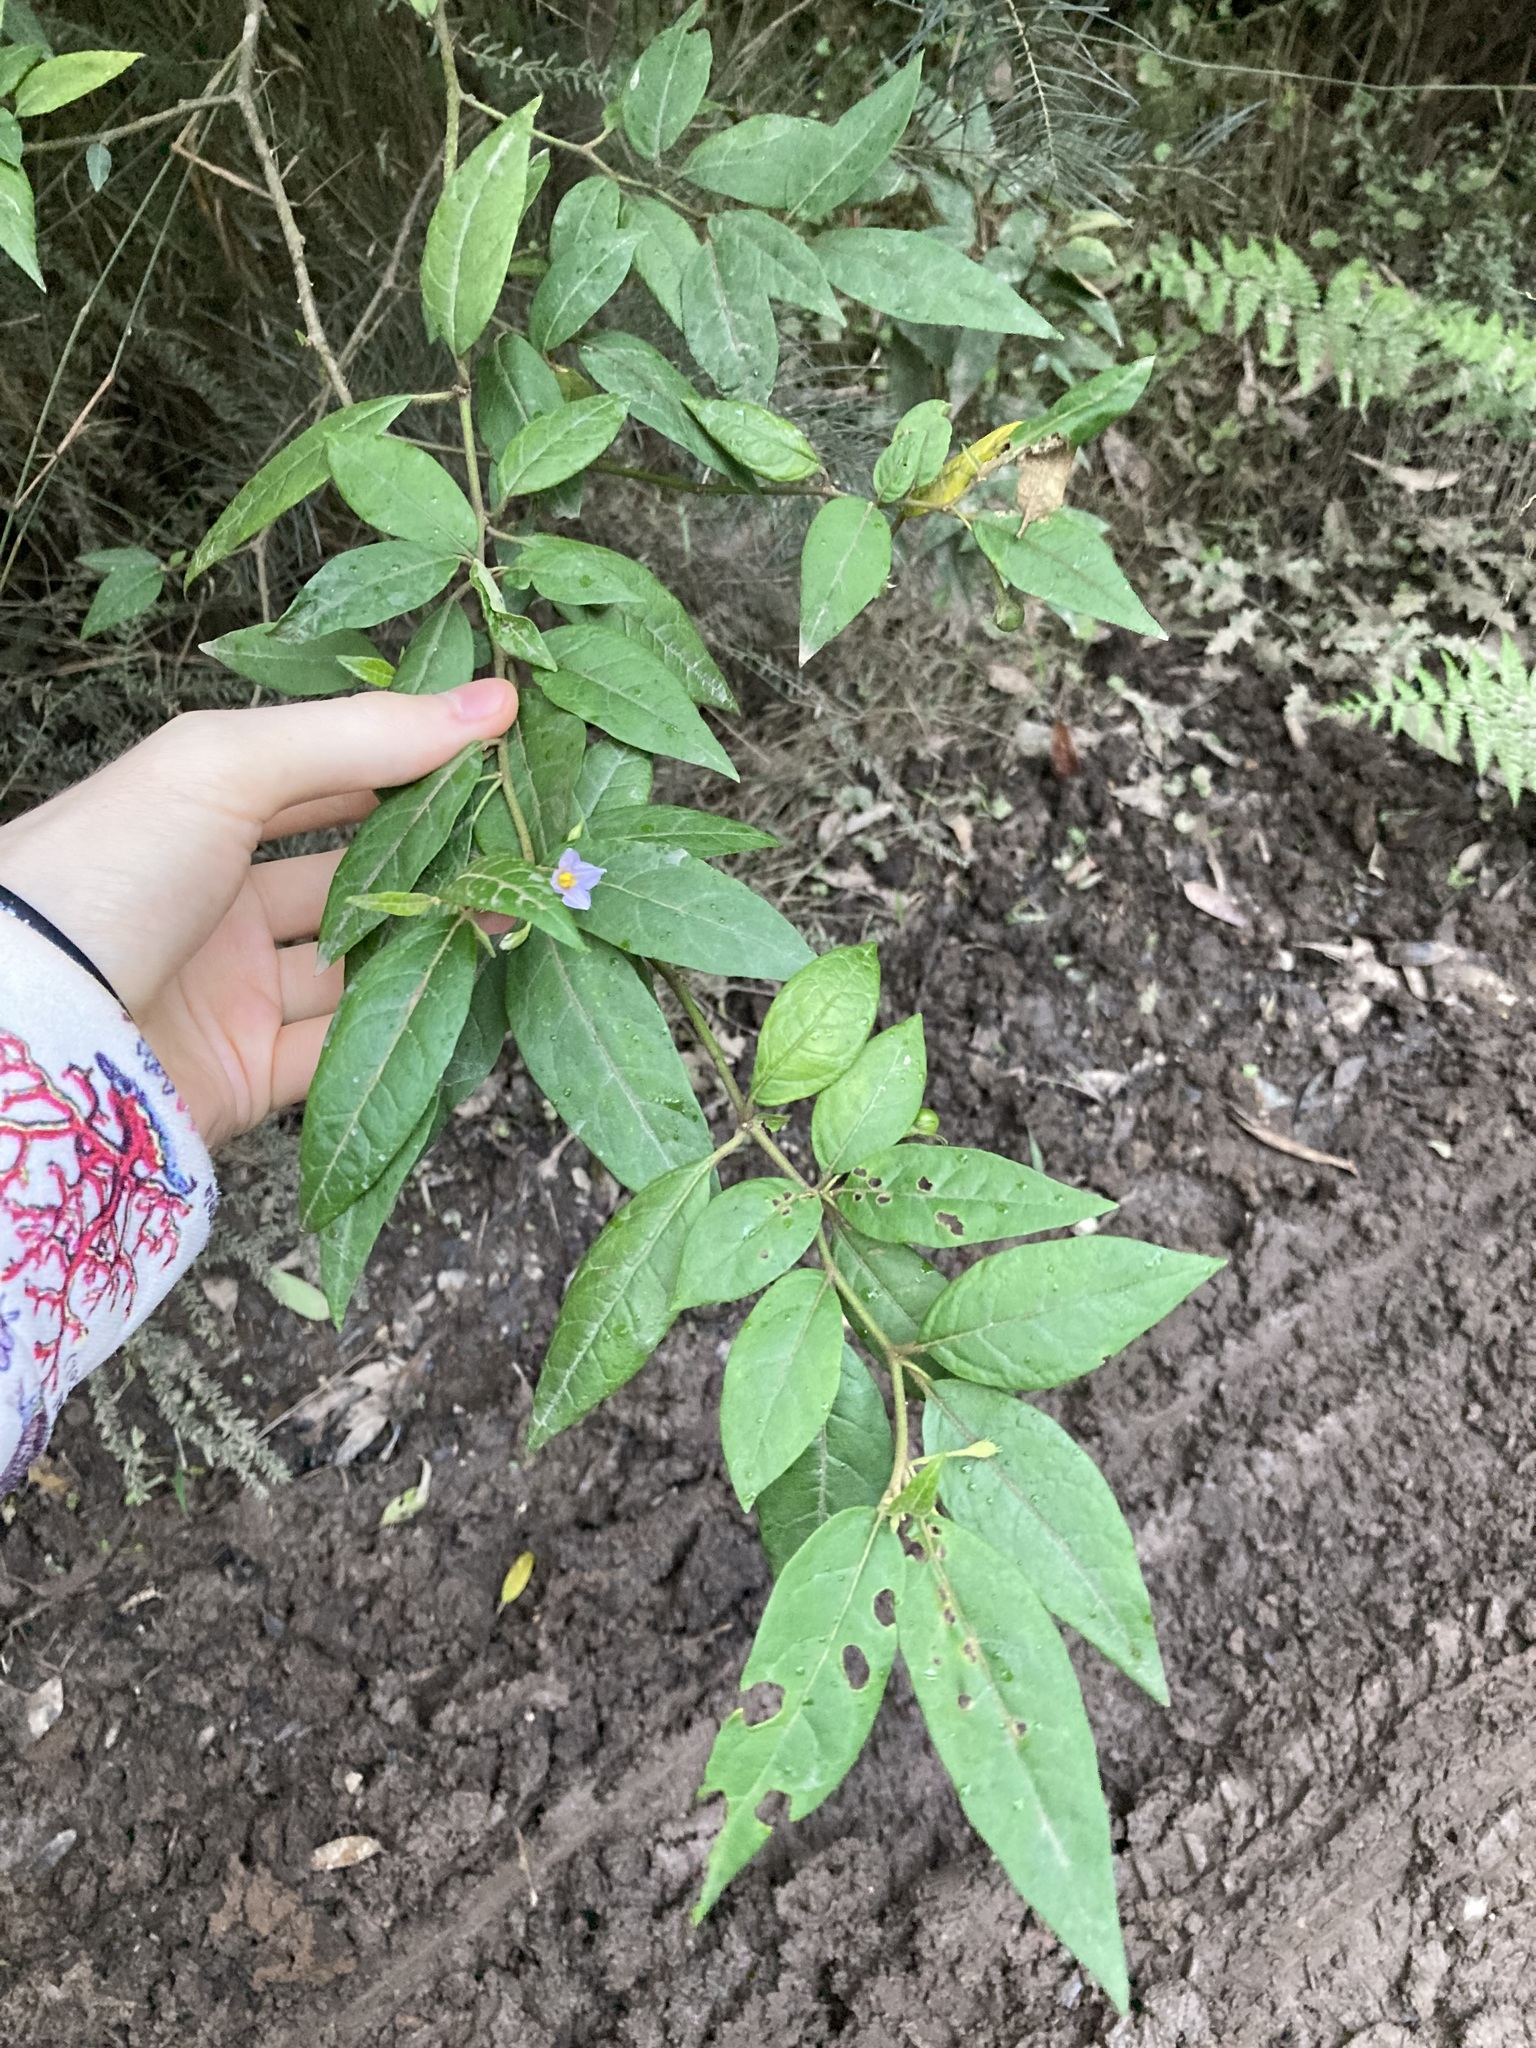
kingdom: Plantae
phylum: Tracheophyta
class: Magnoliopsida
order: Solanales
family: Solanaceae
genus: Solanum
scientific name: Solanum stelligerum
